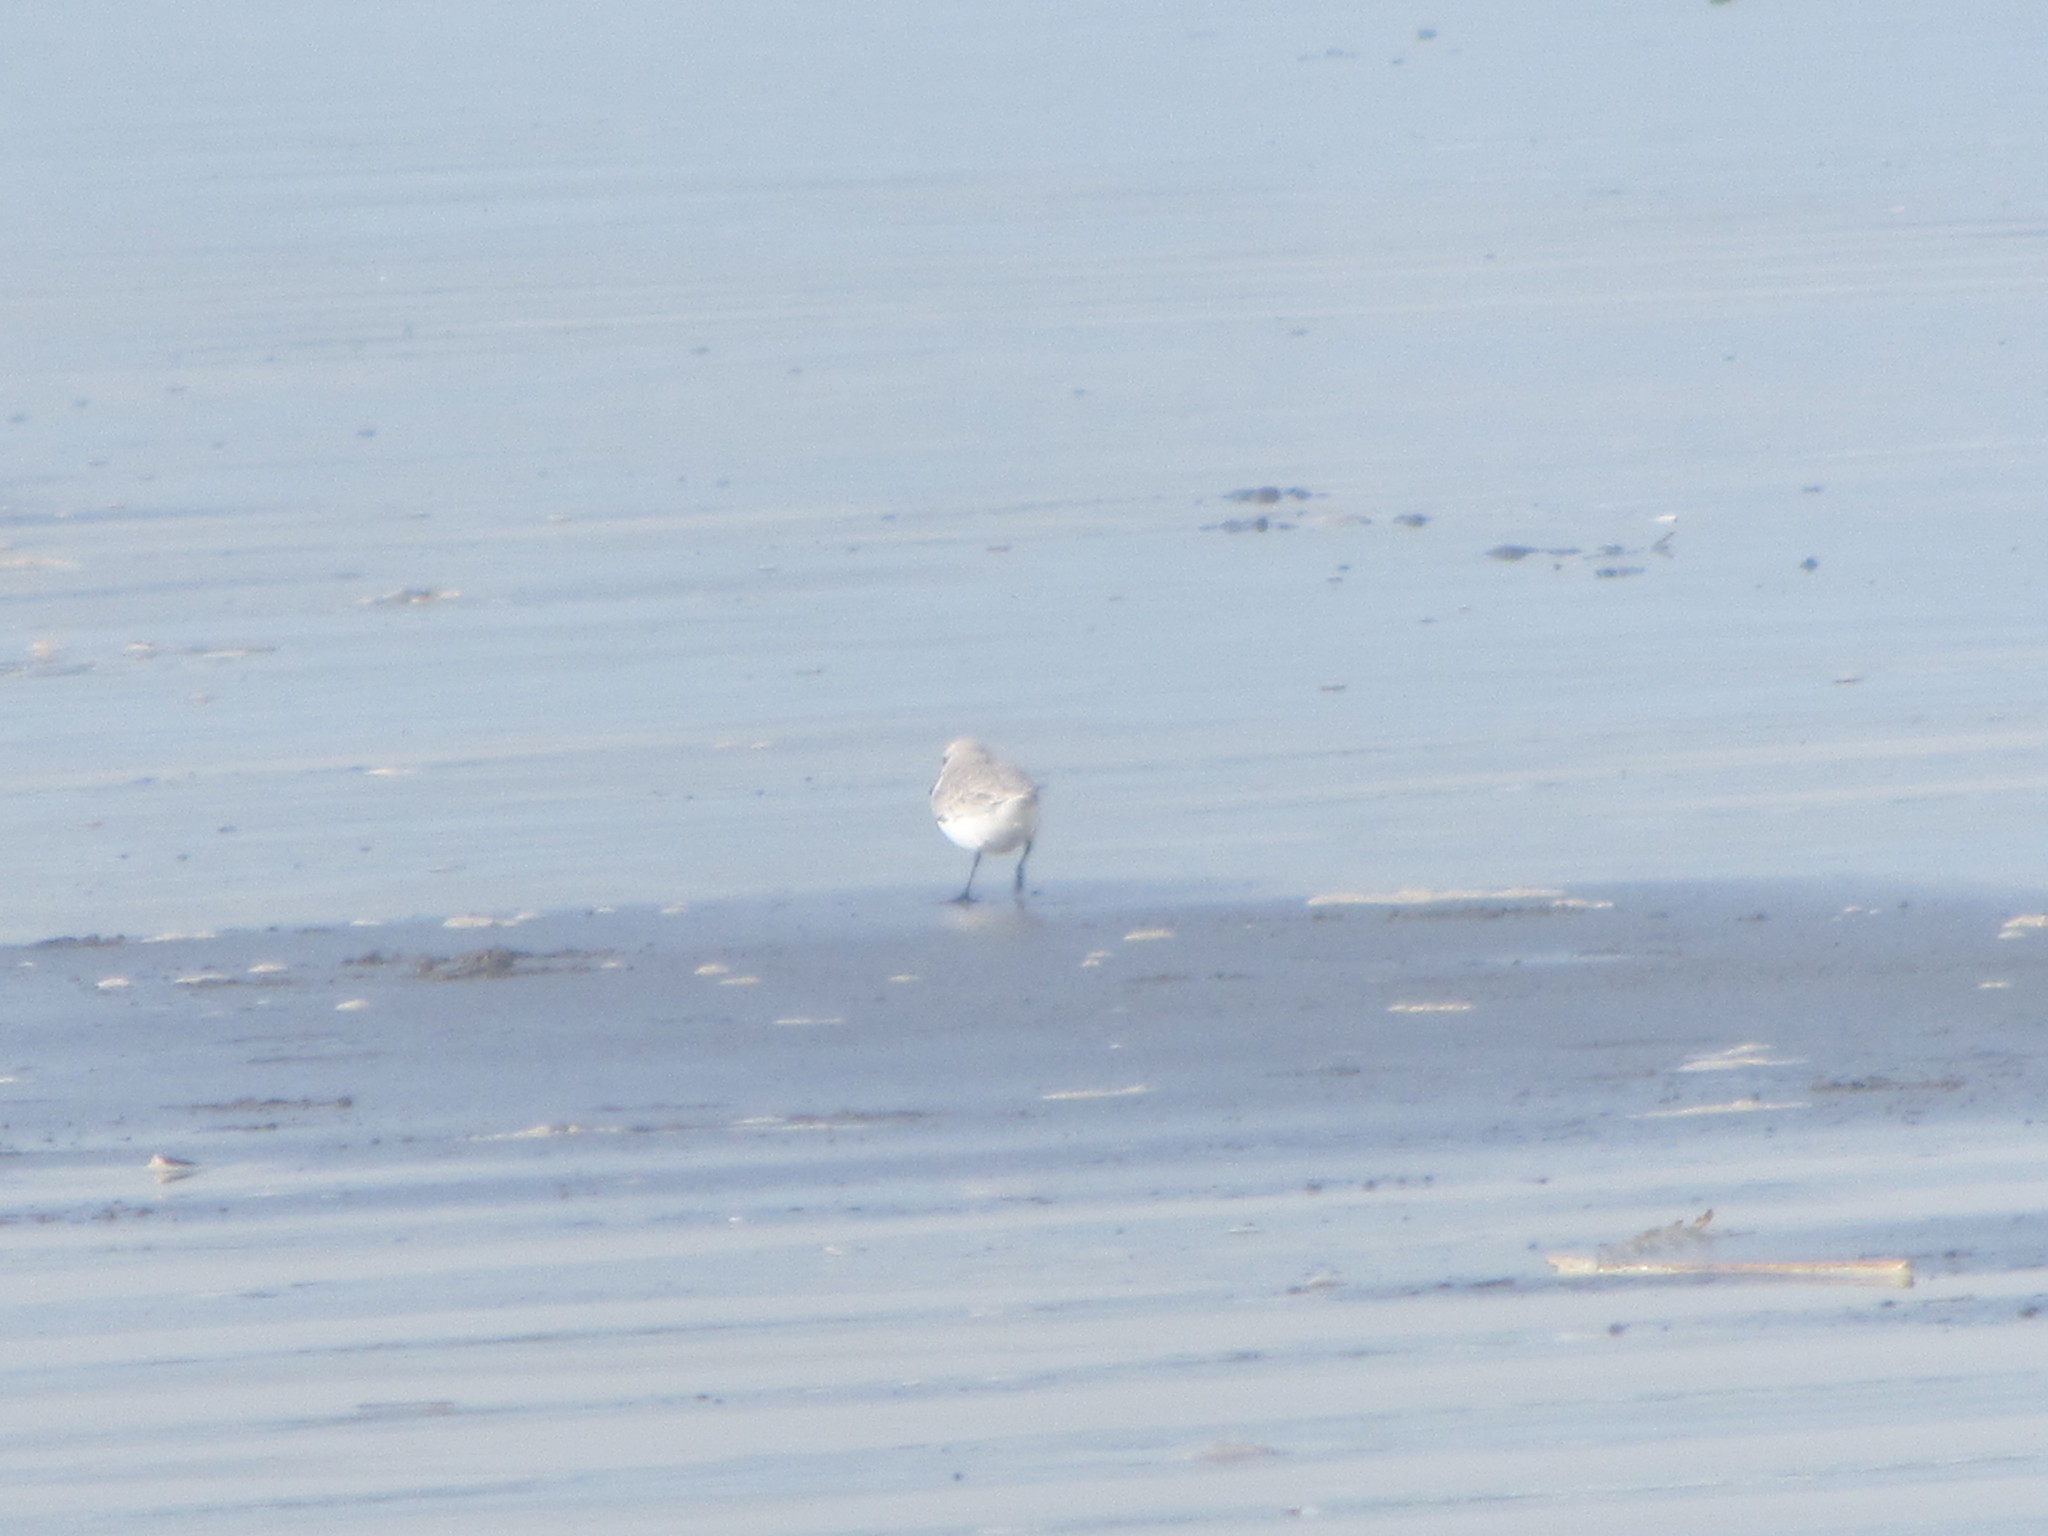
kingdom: Animalia
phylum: Chordata
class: Aves
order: Charadriiformes
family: Scolopacidae
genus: Calidris
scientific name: Calidris alba
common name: Sanderling
